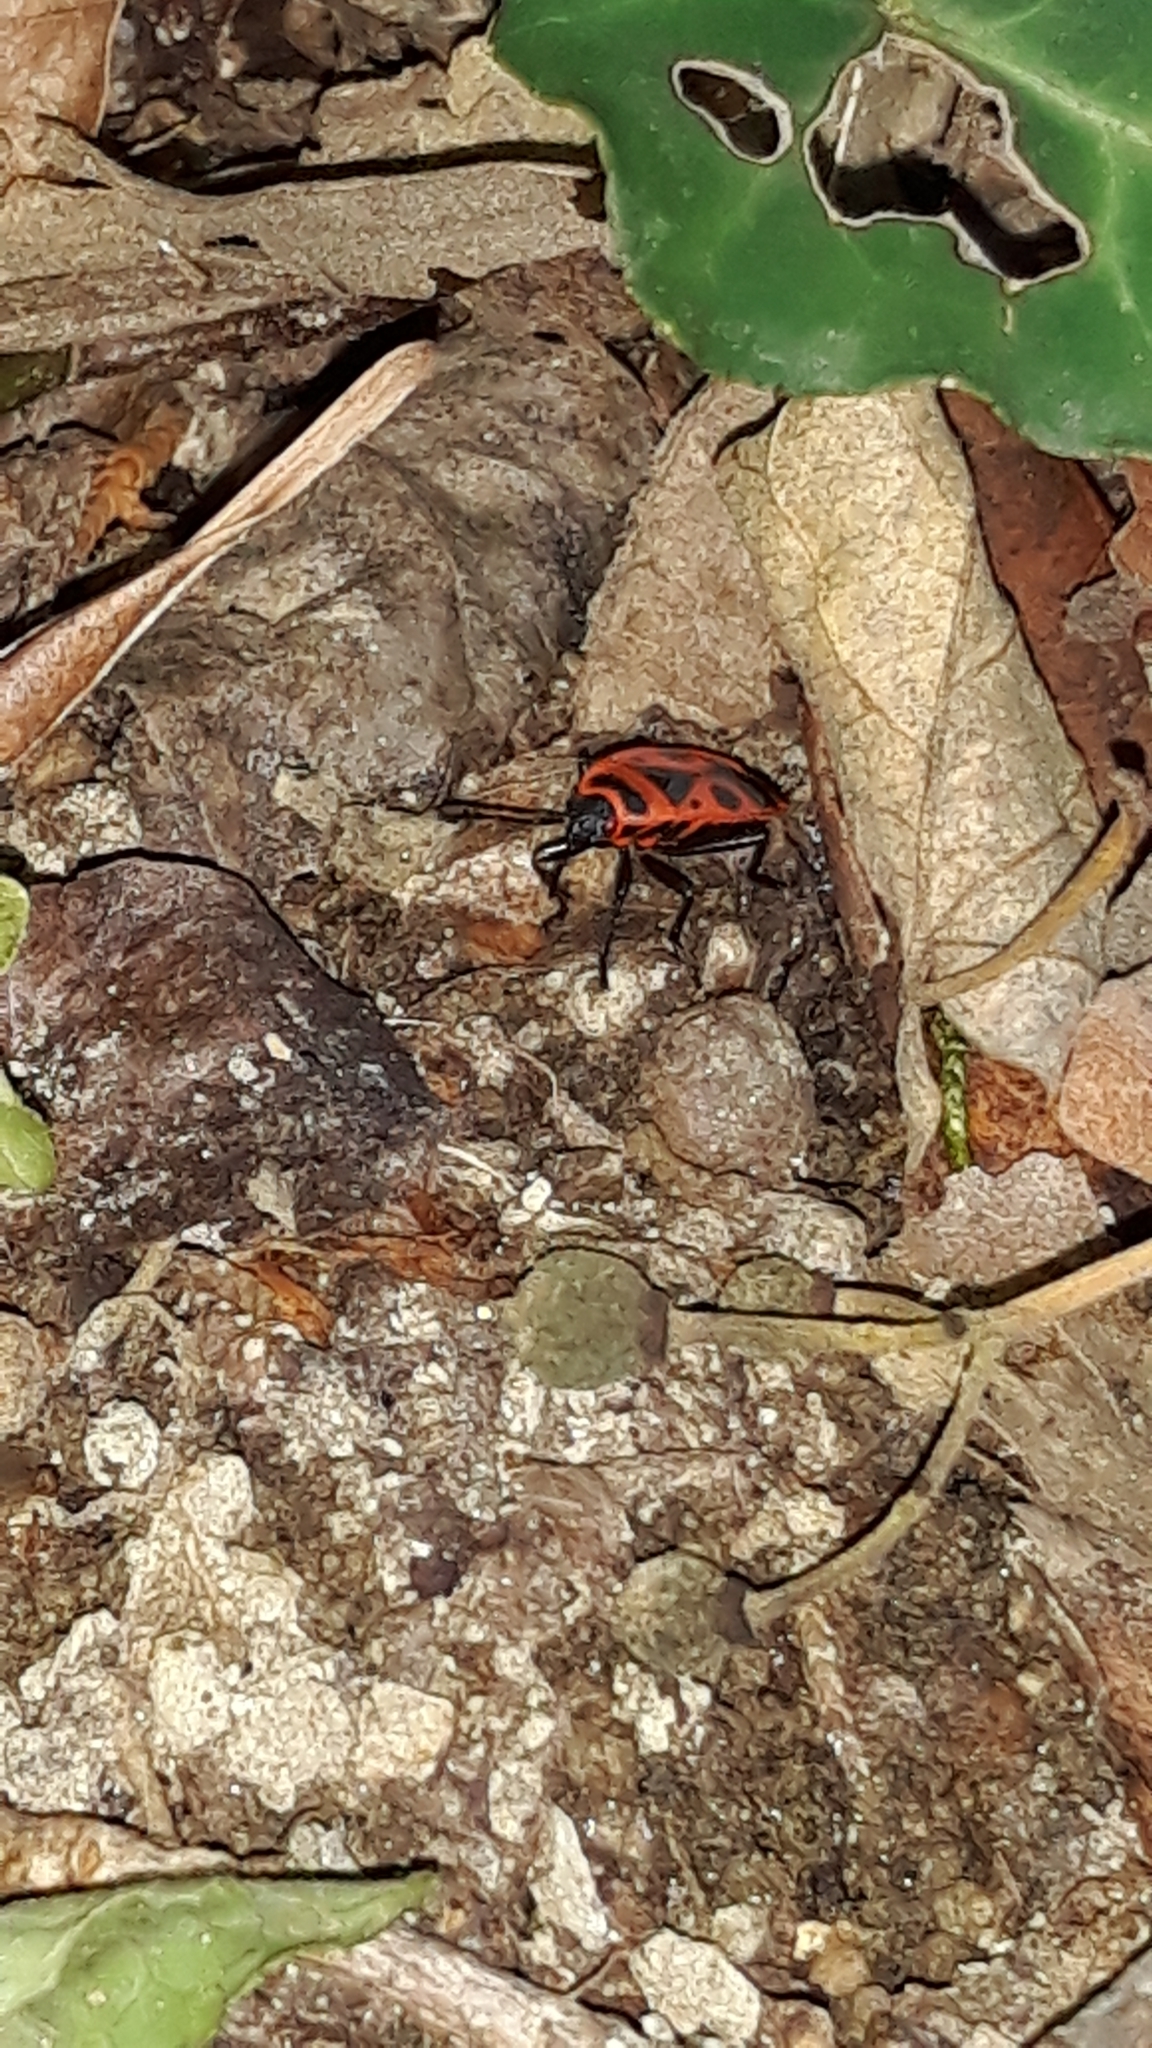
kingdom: Animalia
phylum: Arthropoda
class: Insecta
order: Hemiptera
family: Pyrrhocoridae
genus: Pyrrhocoris
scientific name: Pyrrhocoris apterus
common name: Firebug
